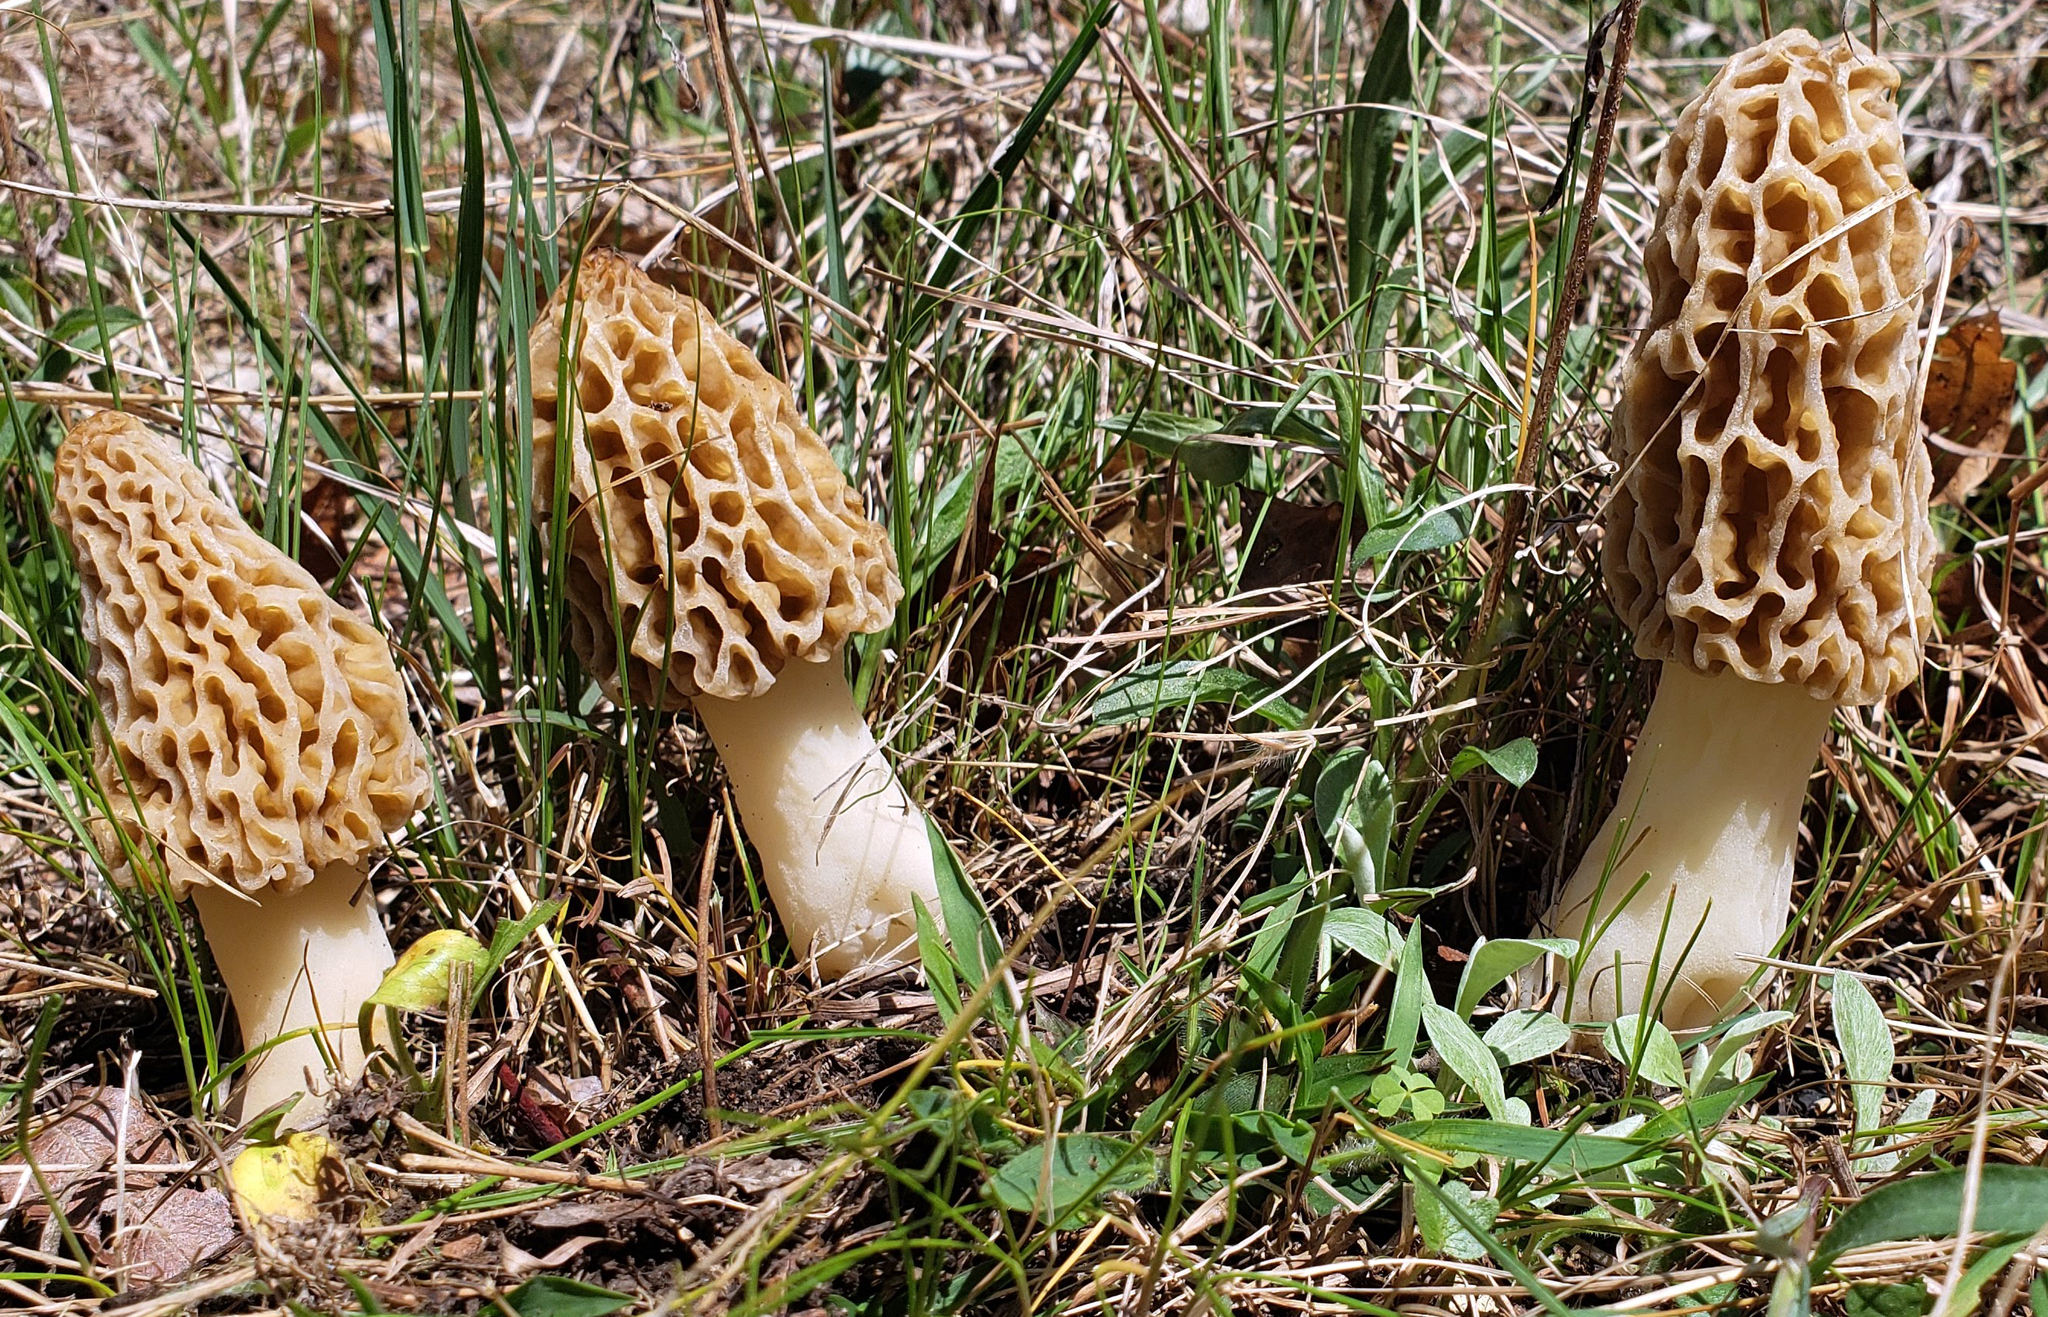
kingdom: Fungi
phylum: Ascomycota
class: Pezizomycetes
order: Pezizales
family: Morchellaceae
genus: Morchella
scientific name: Morchella americana
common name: White morel
